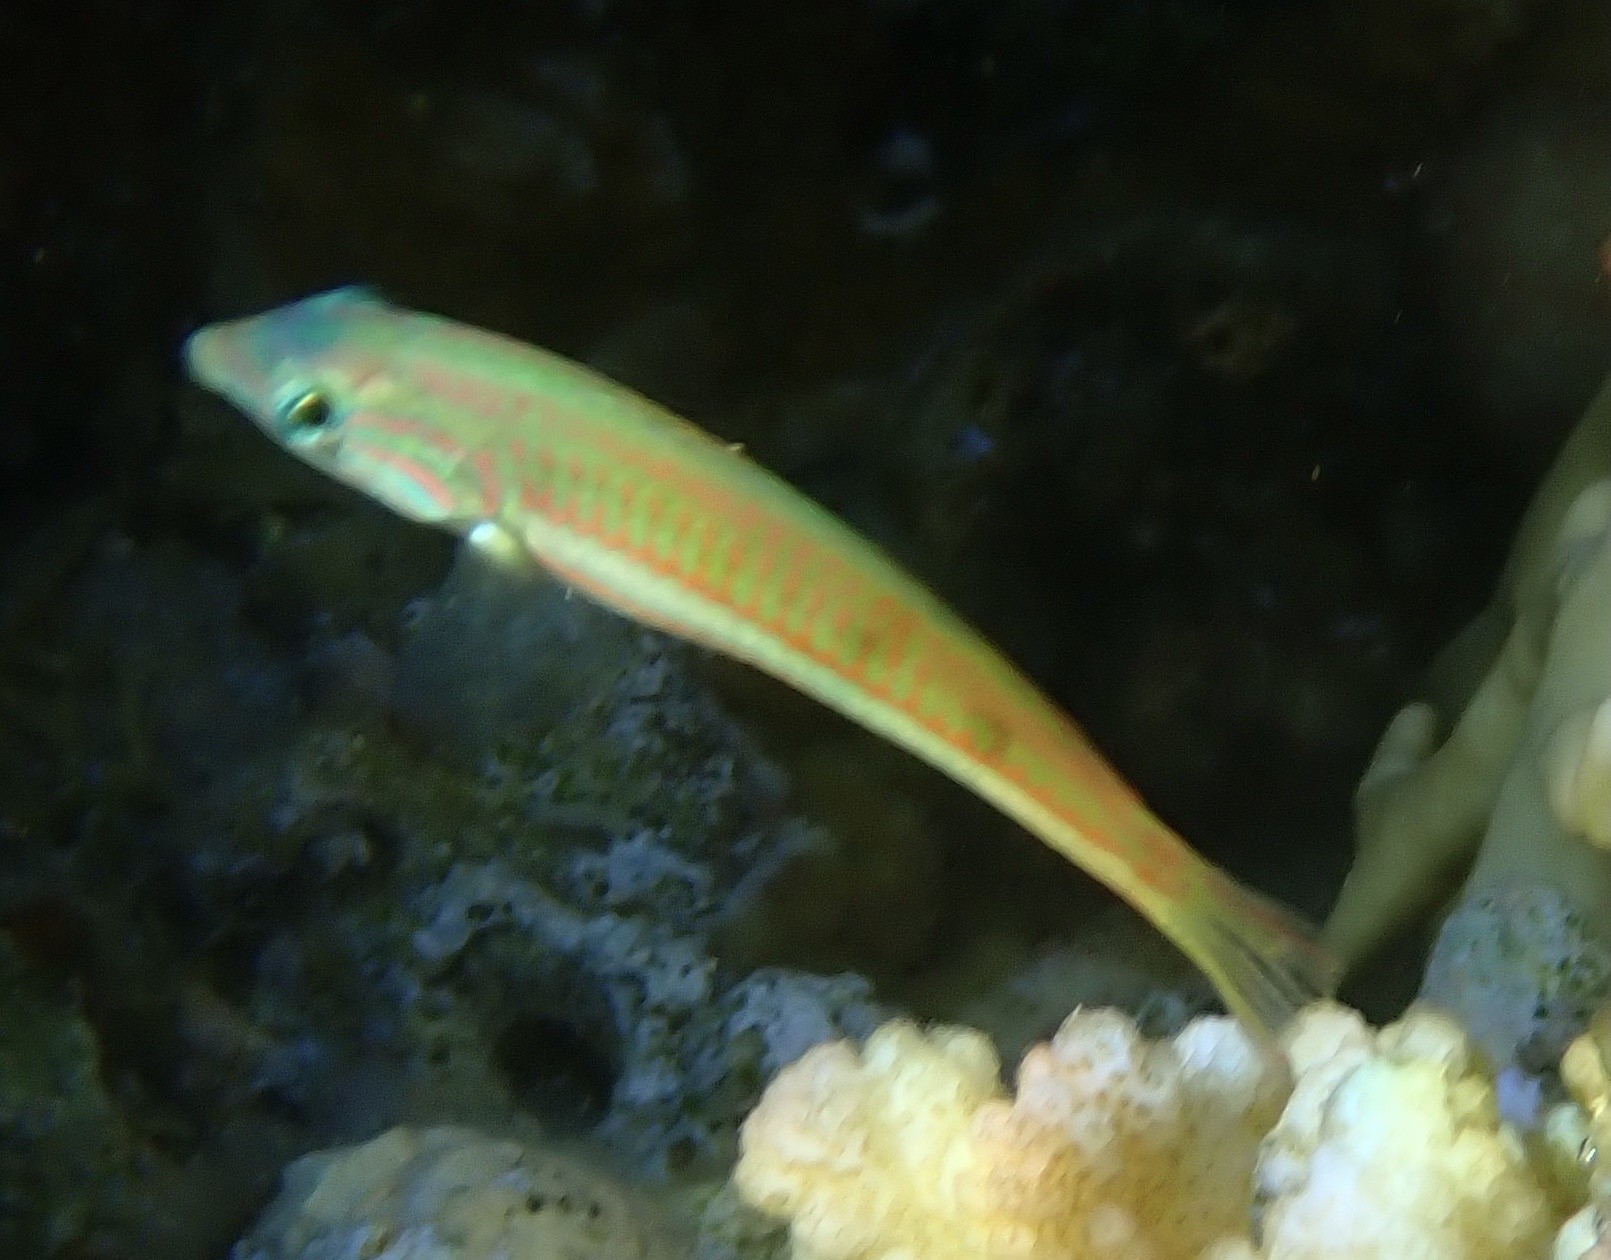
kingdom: Animalia
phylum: Chordata
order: Perciformes
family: Labridae
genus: Thalassoma
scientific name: Thalassoma rueppellii
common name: Klunzinger's wrasse
